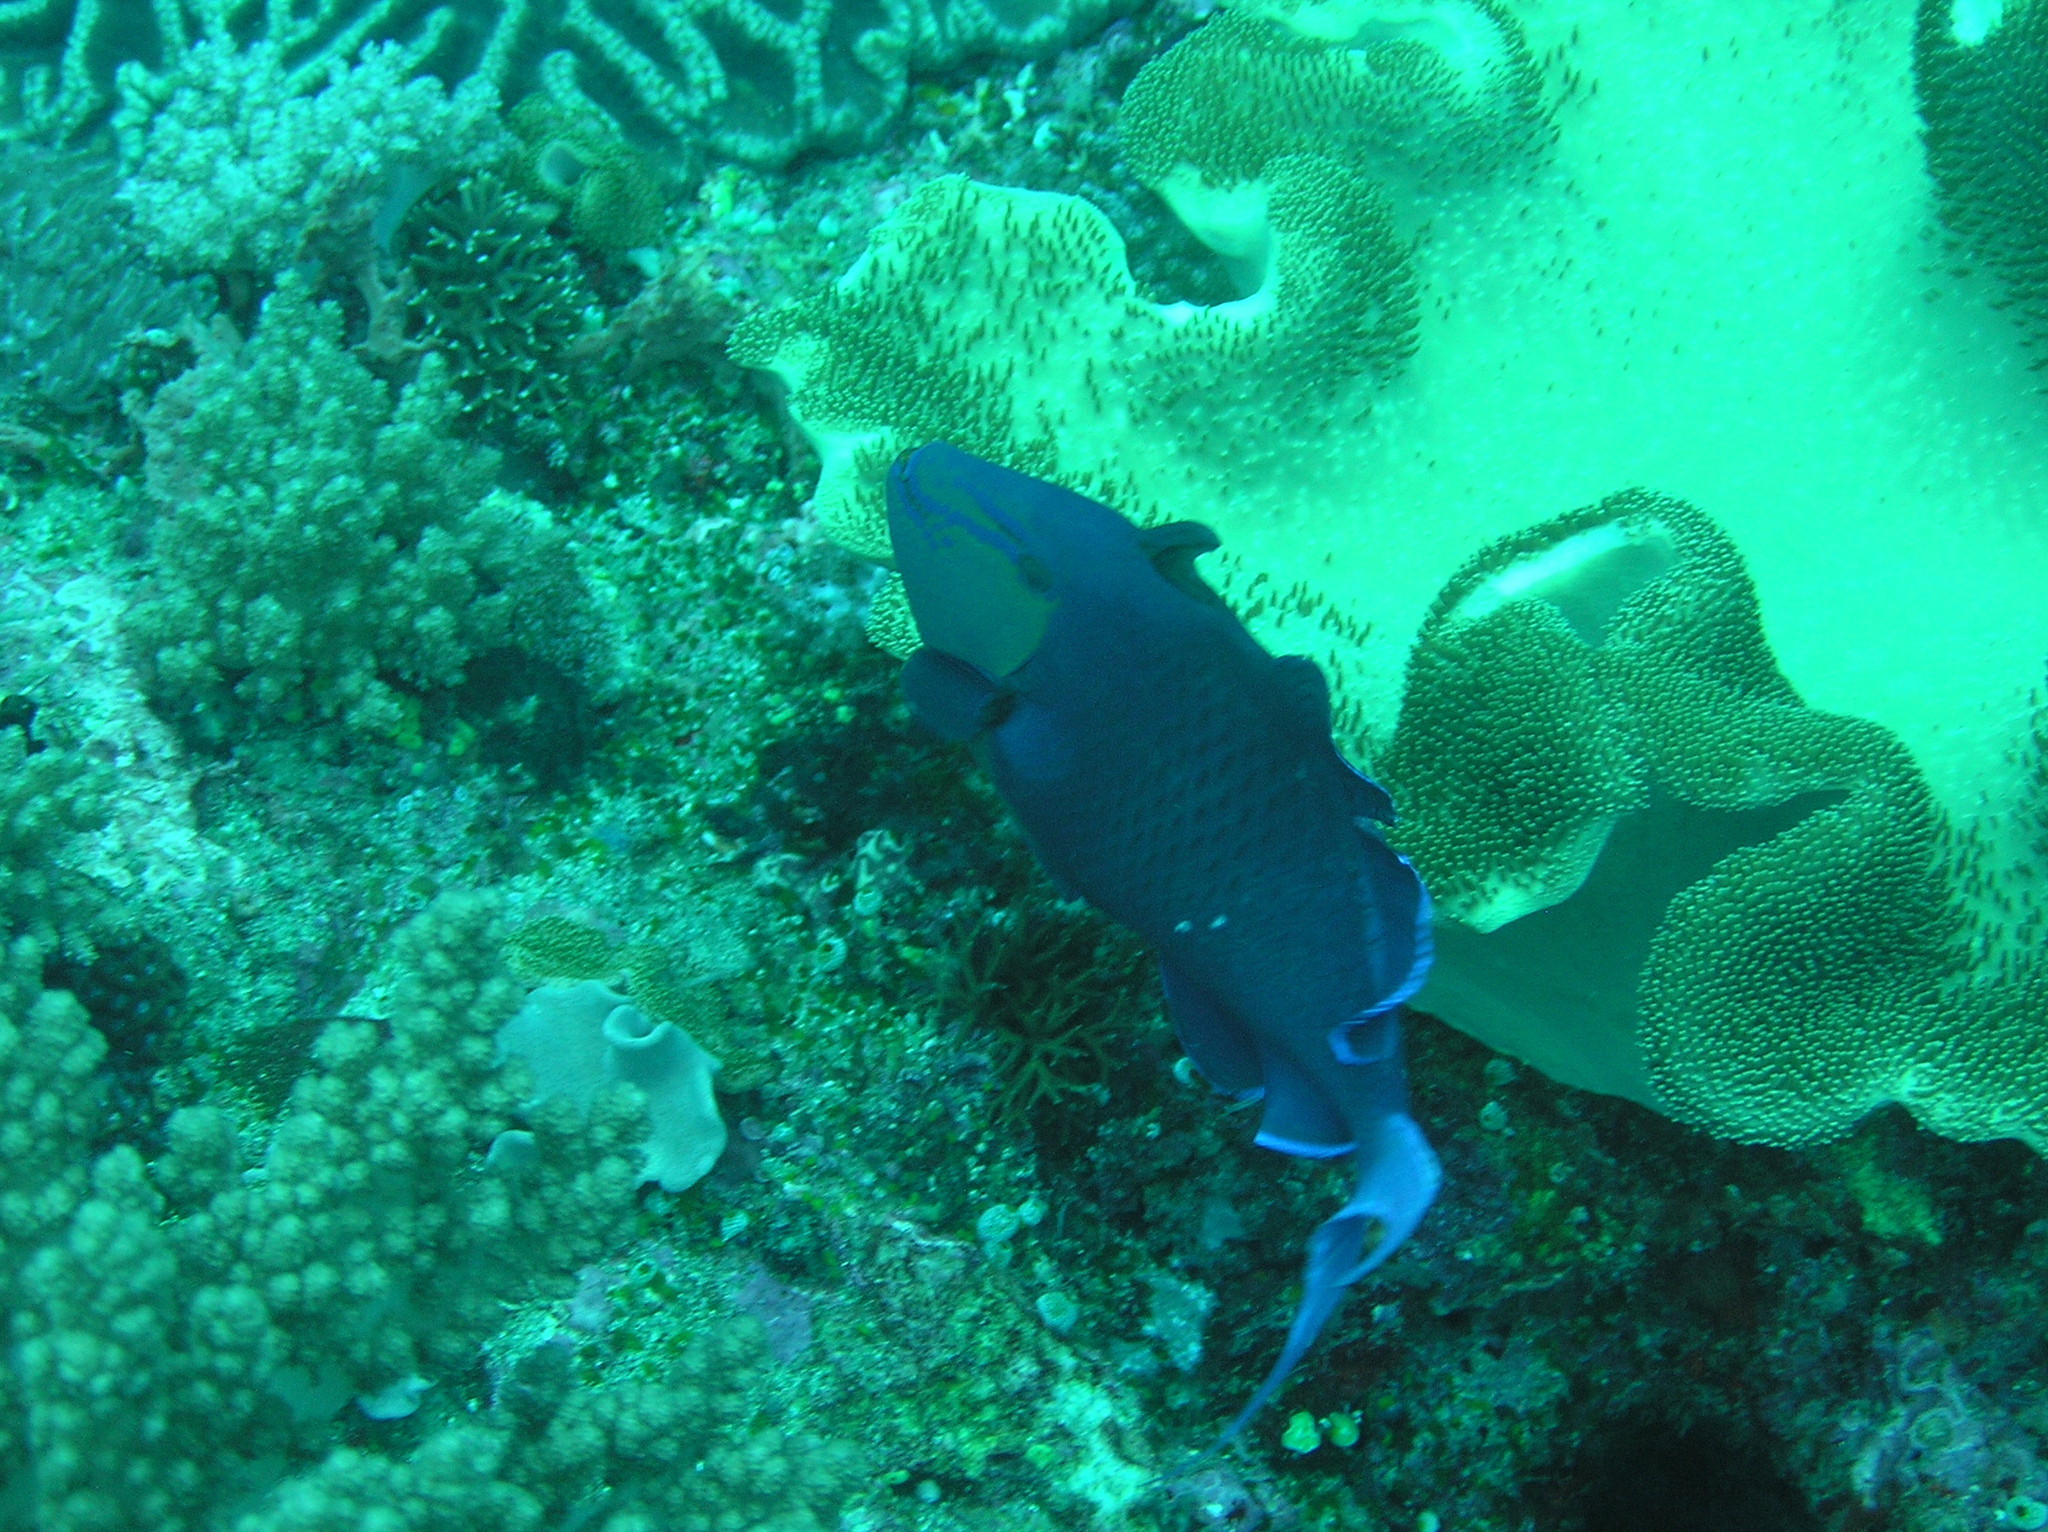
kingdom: Animalia
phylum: Chordata
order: Tetraodontiformes
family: Balistidae
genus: Odonus
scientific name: Odonus niger
